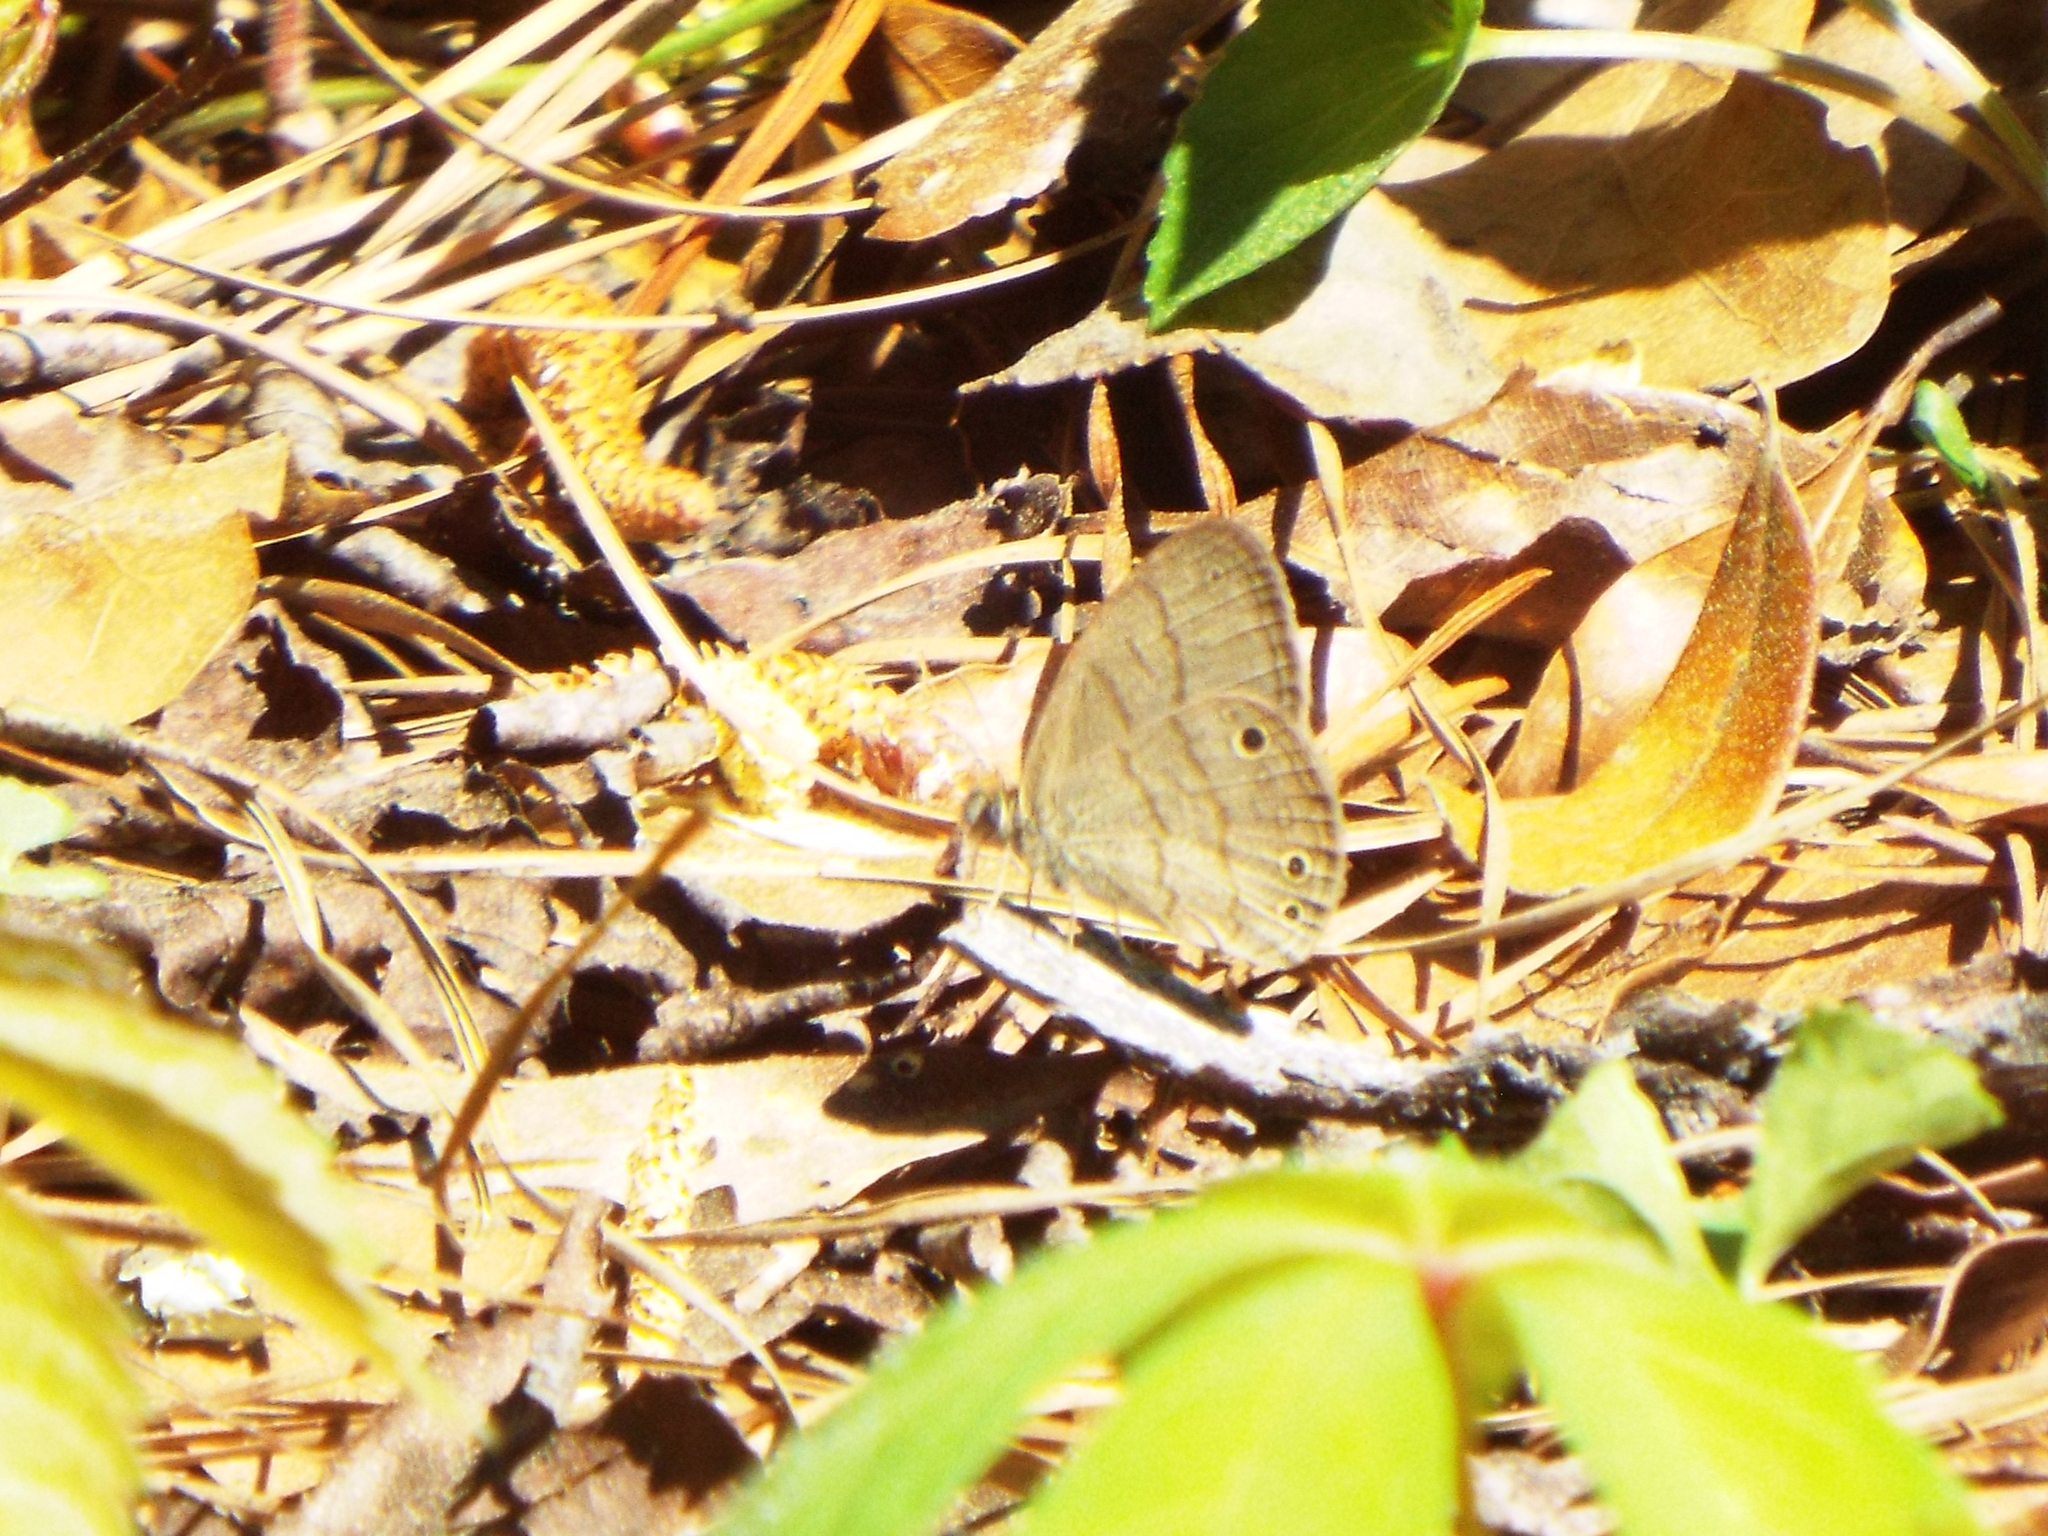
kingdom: Animalia
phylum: Arthropoda
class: Insecta
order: Lepidoptera
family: Nymphalidae
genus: Hermeuptychia
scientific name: Hermeuptychia intricata
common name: Intricate satyr
